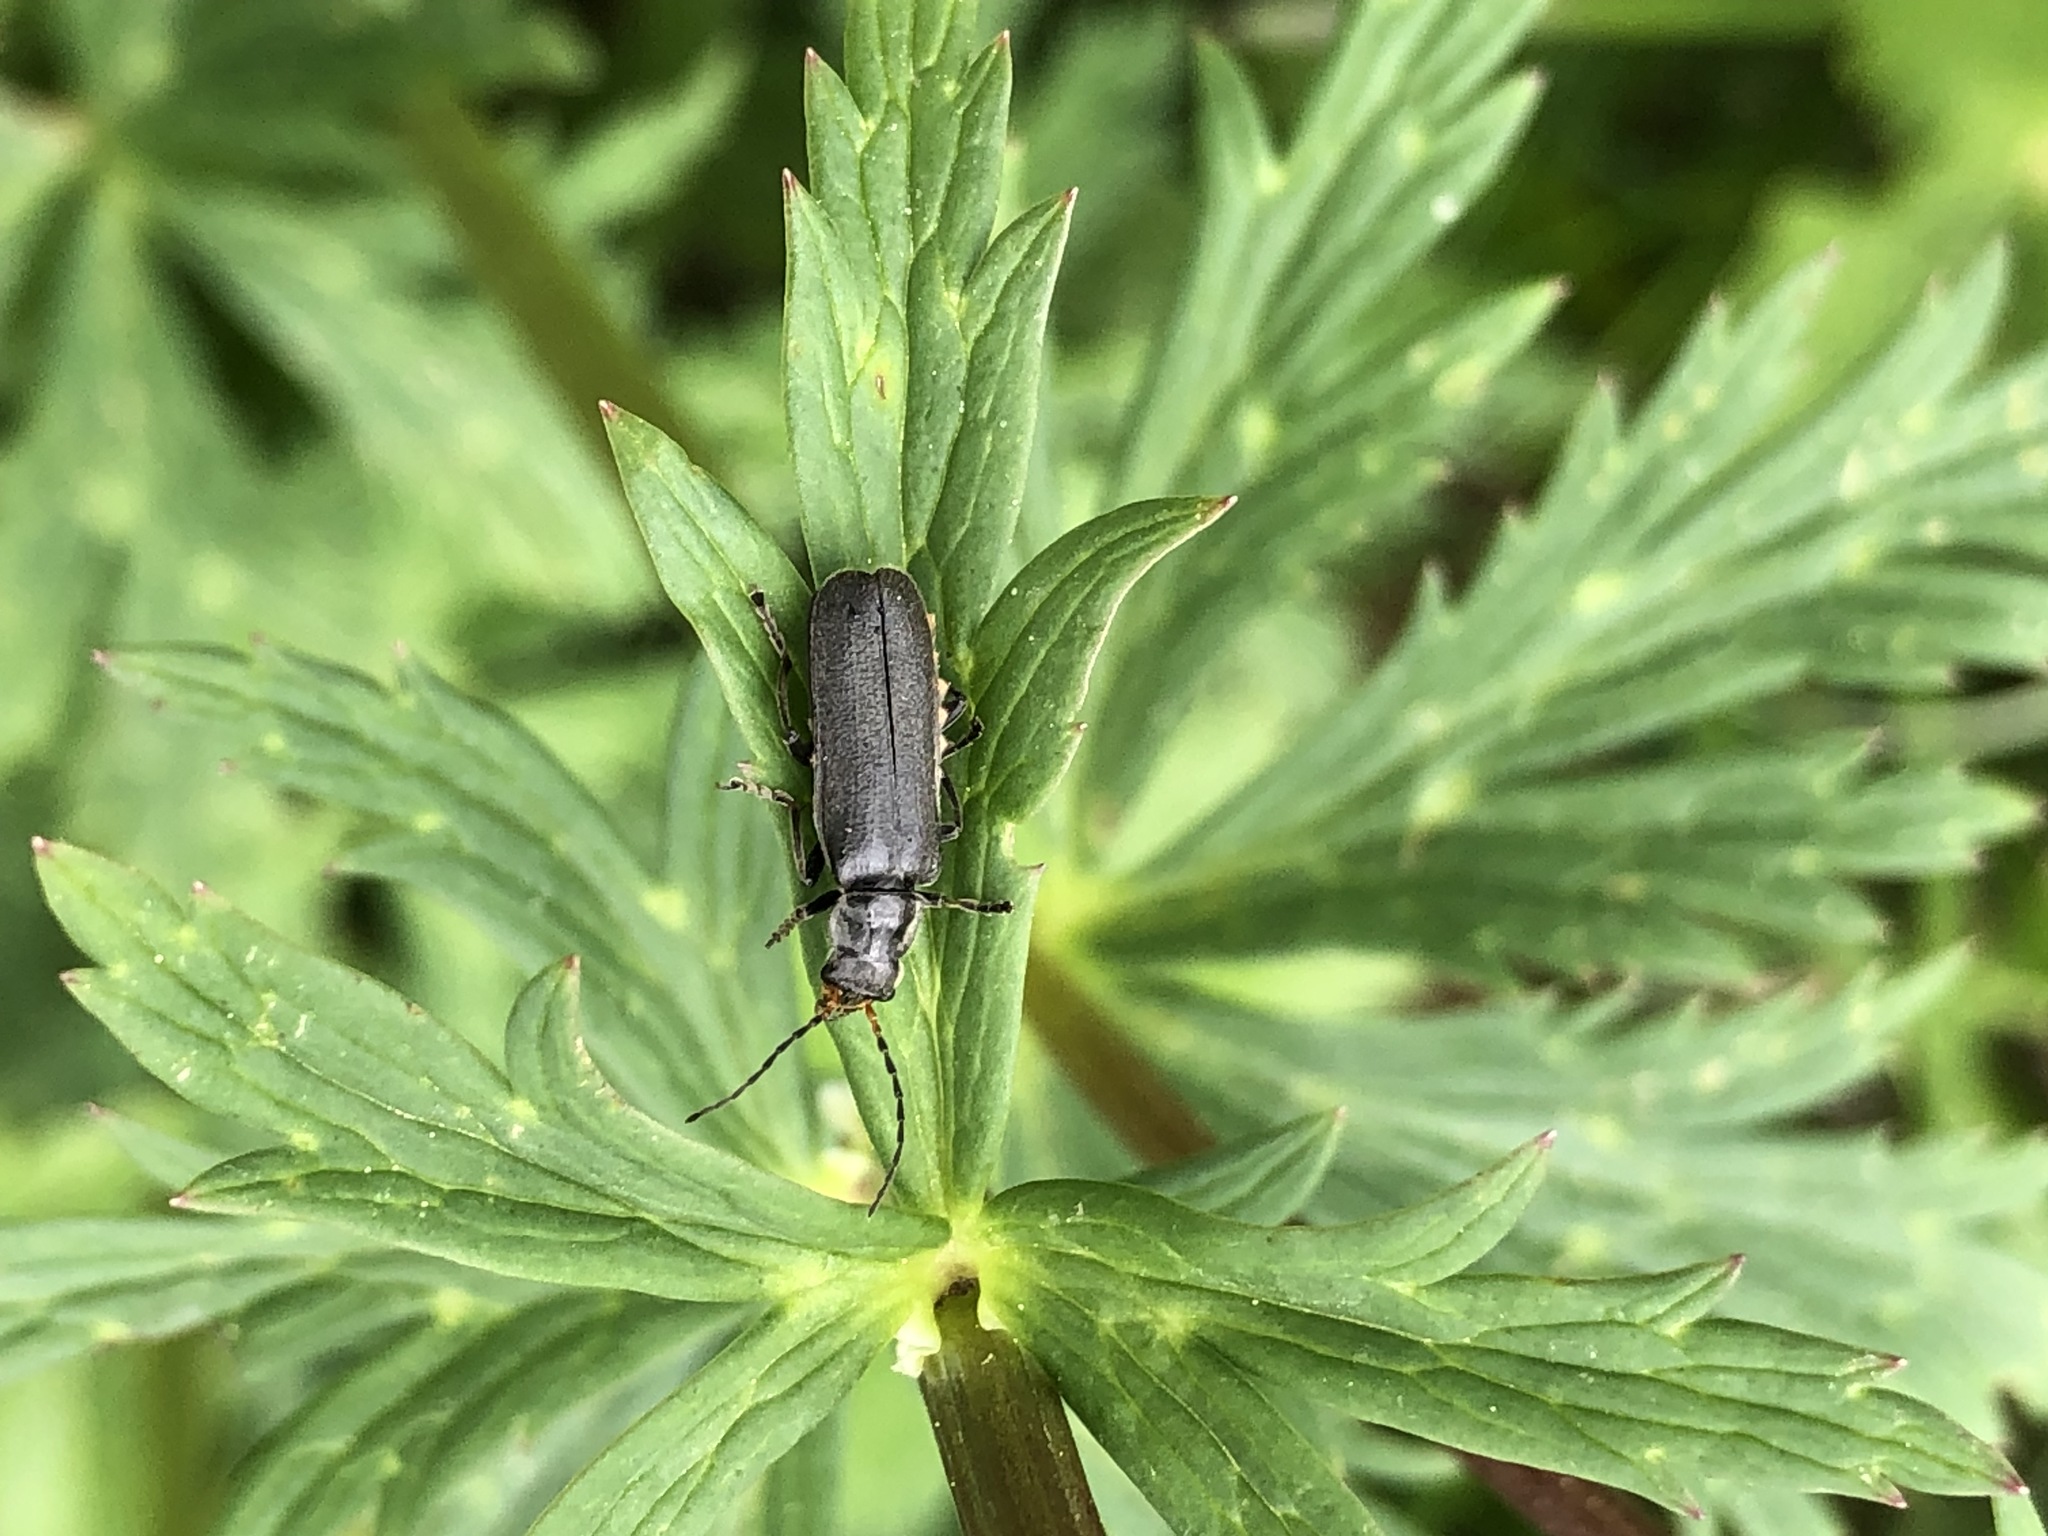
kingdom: Animalia
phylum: Arthropoda
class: Insecta
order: Coleoptera
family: Cantharidae
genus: Cantharis
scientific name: Cantharis tristis
